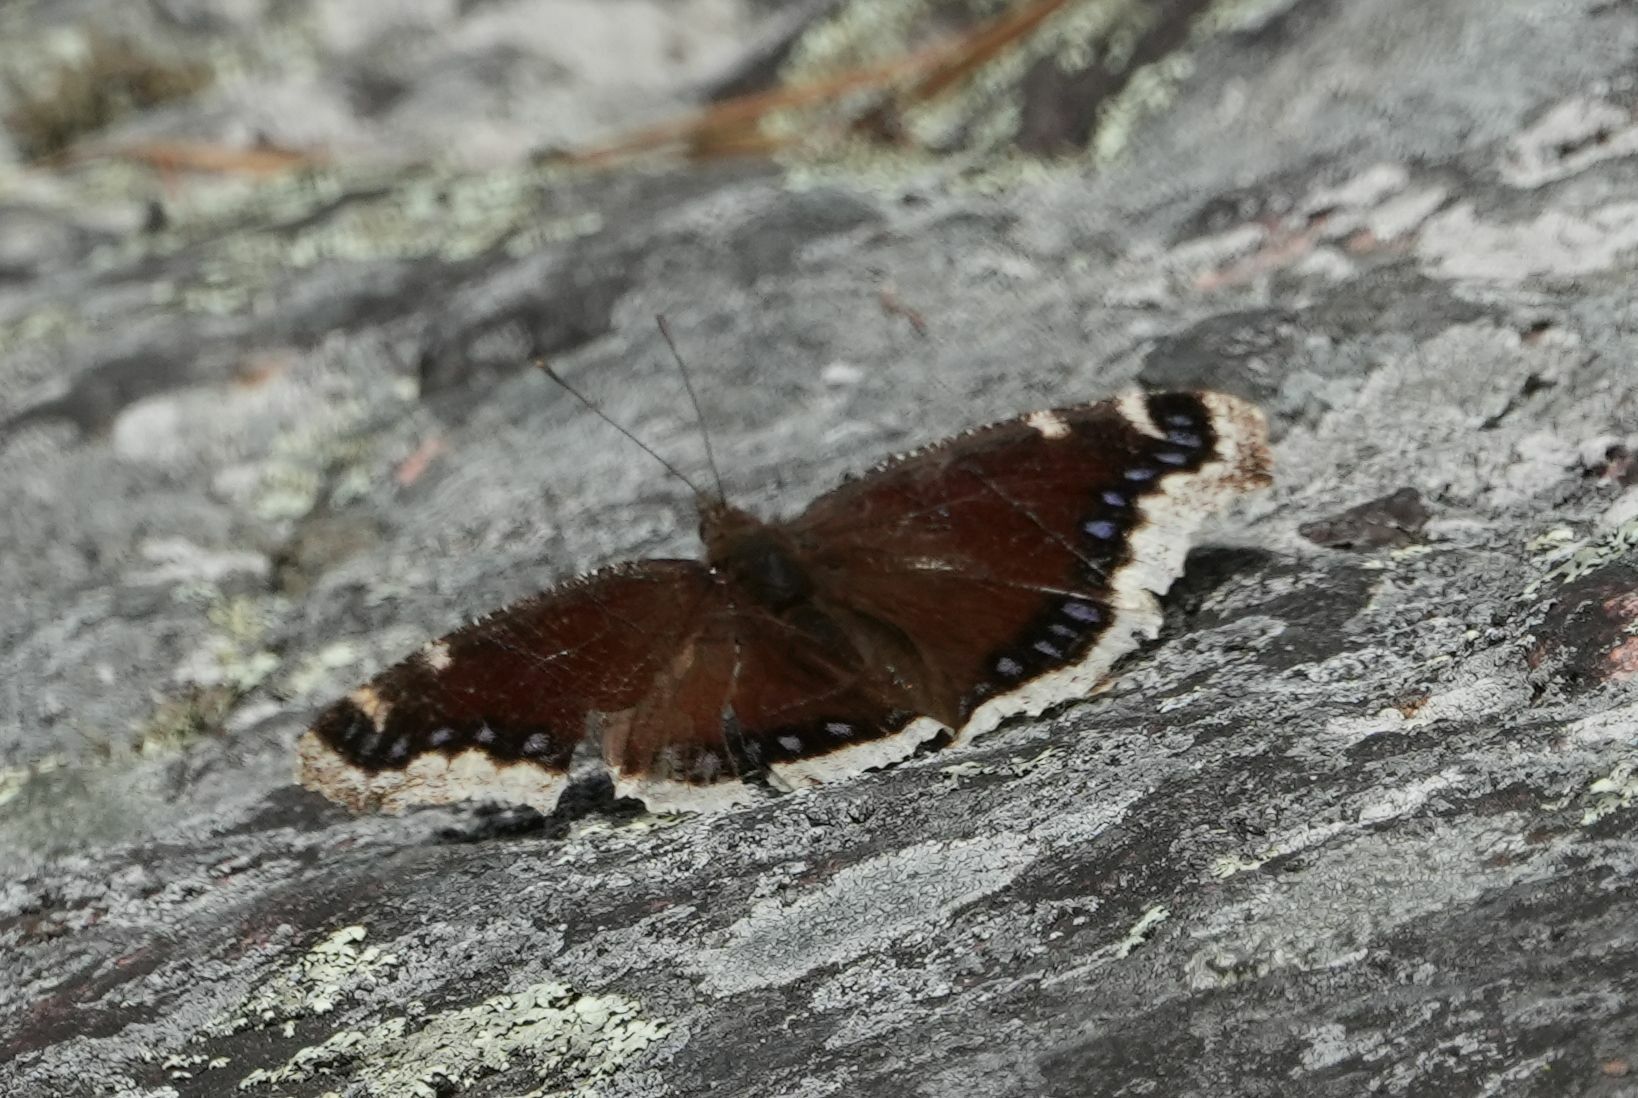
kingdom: Animalia
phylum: Arthropoda
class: Insecta
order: Lepidoptera
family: Nymphalidae
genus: Nymphalis
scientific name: Nymphalis antiopa
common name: Camberwell beauty
